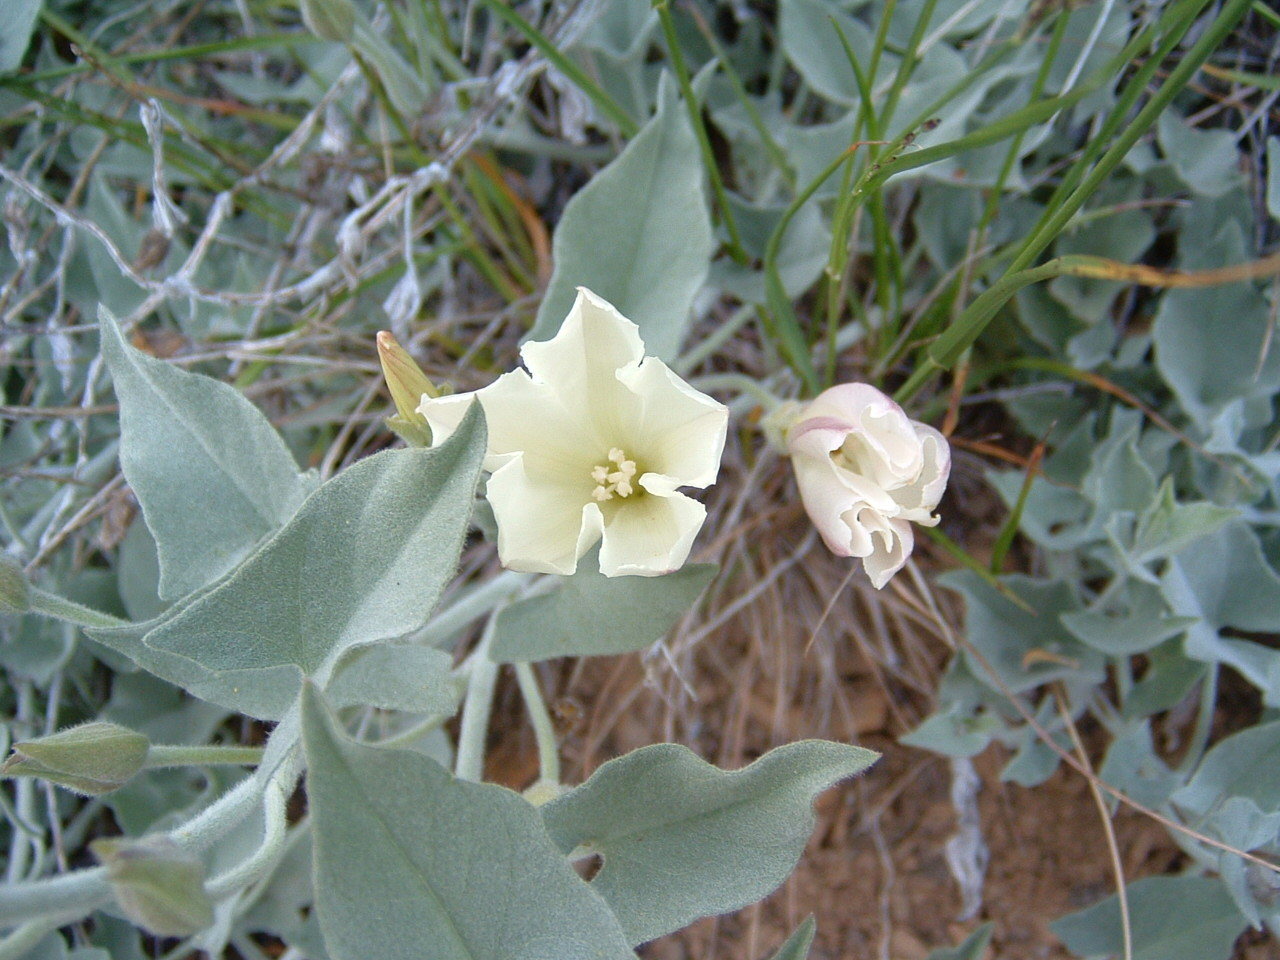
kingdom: Plantae
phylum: Tracheophyta
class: Magnoliopsida
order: Solanales
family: Convolvulaceae
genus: Calystegia
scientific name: Calystegia malacophylla
